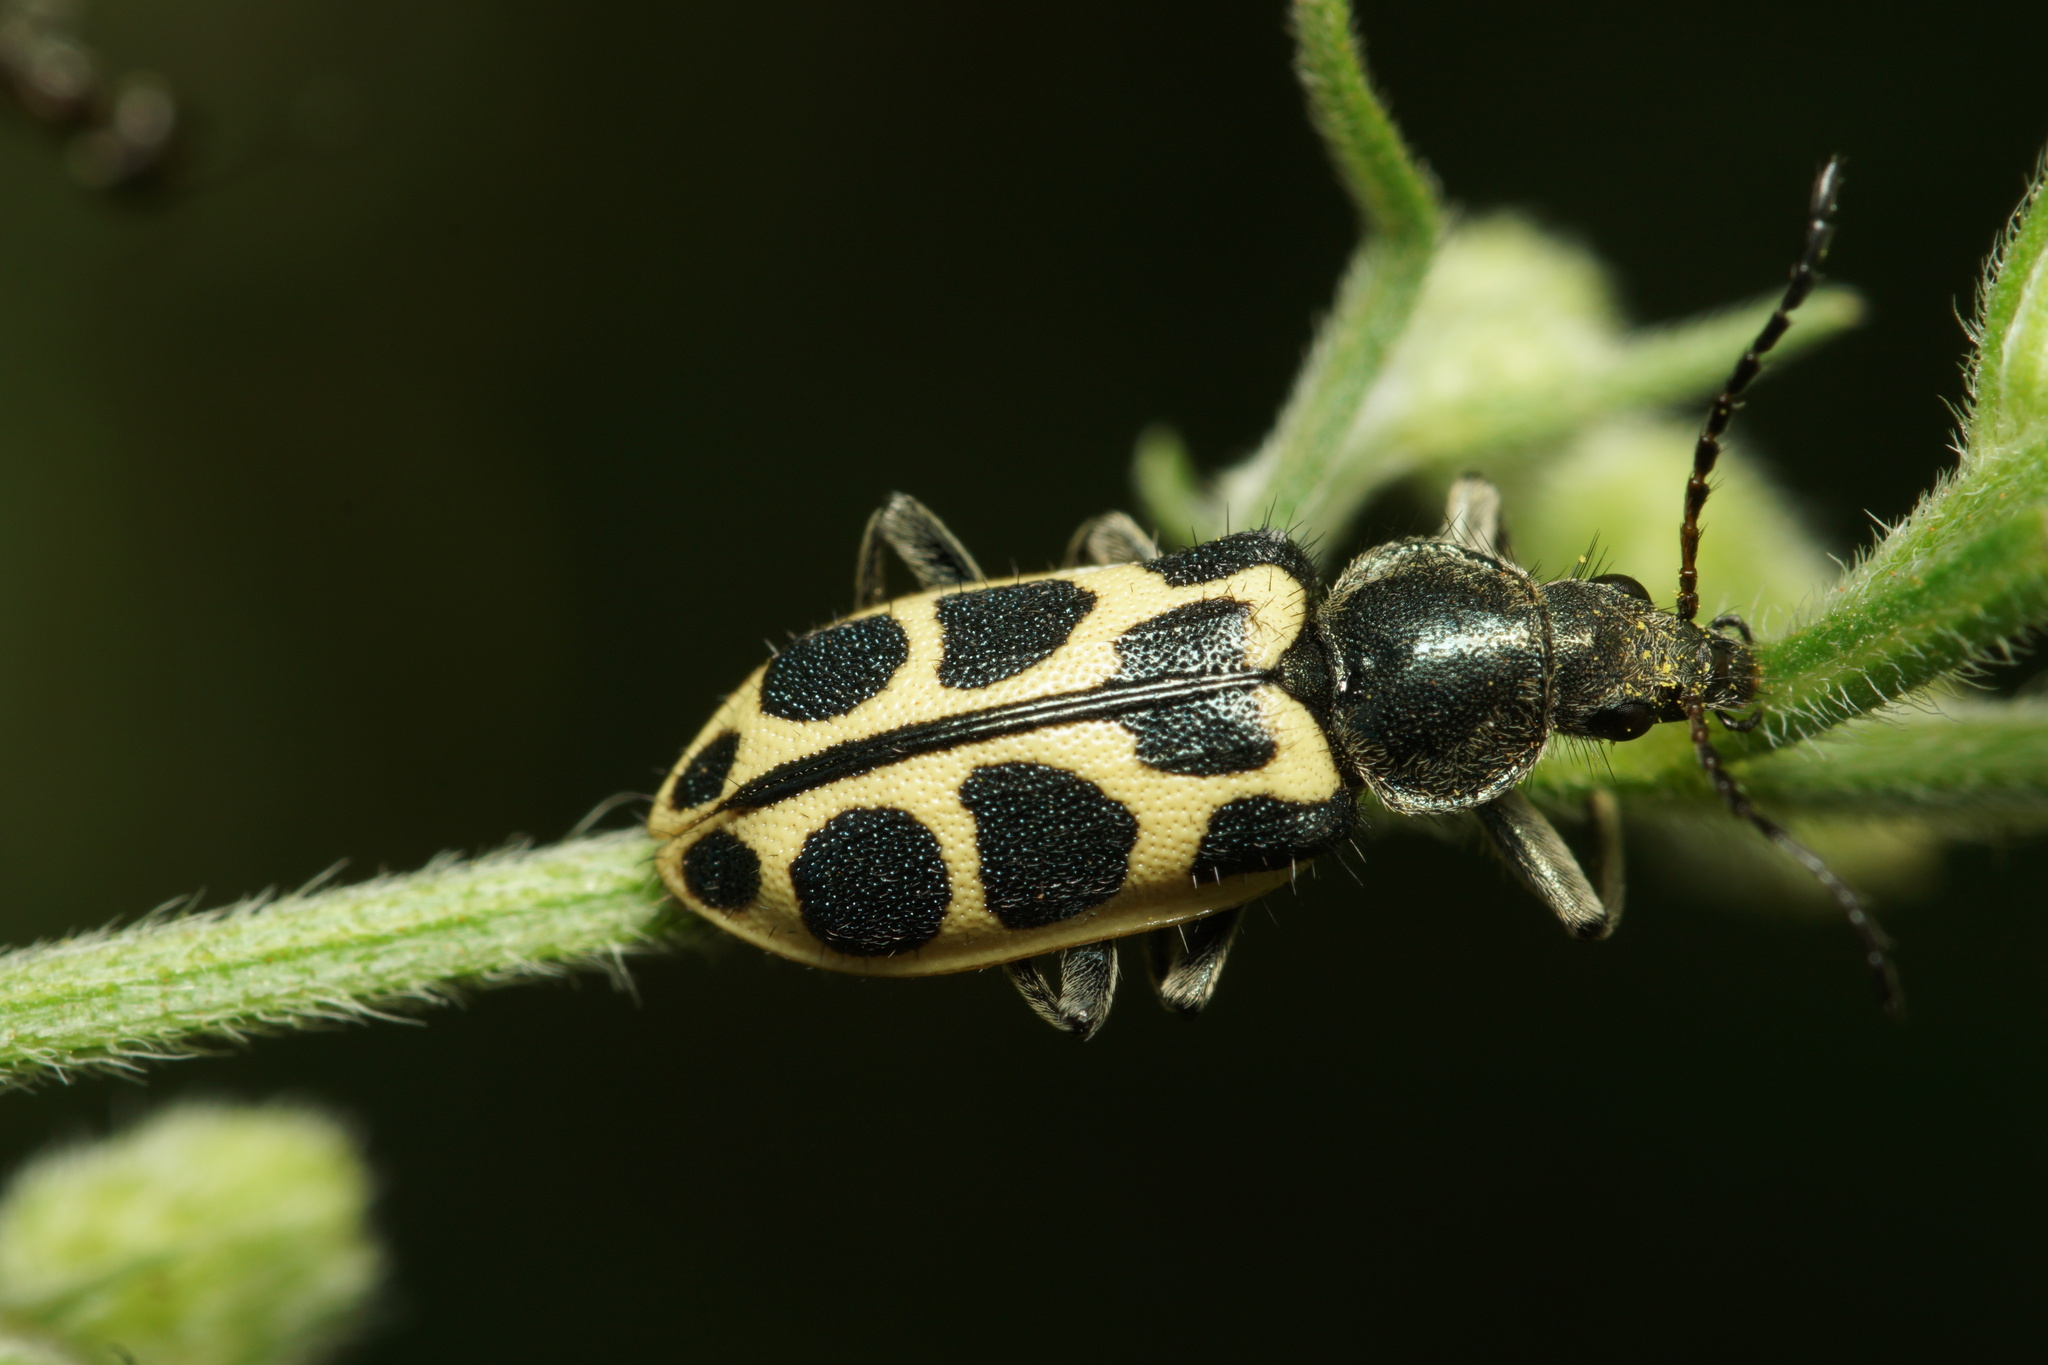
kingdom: Animalia
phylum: Arthropoda
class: Insecta
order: Coleoptera
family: Melyridae
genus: Astylus
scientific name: Astylus
